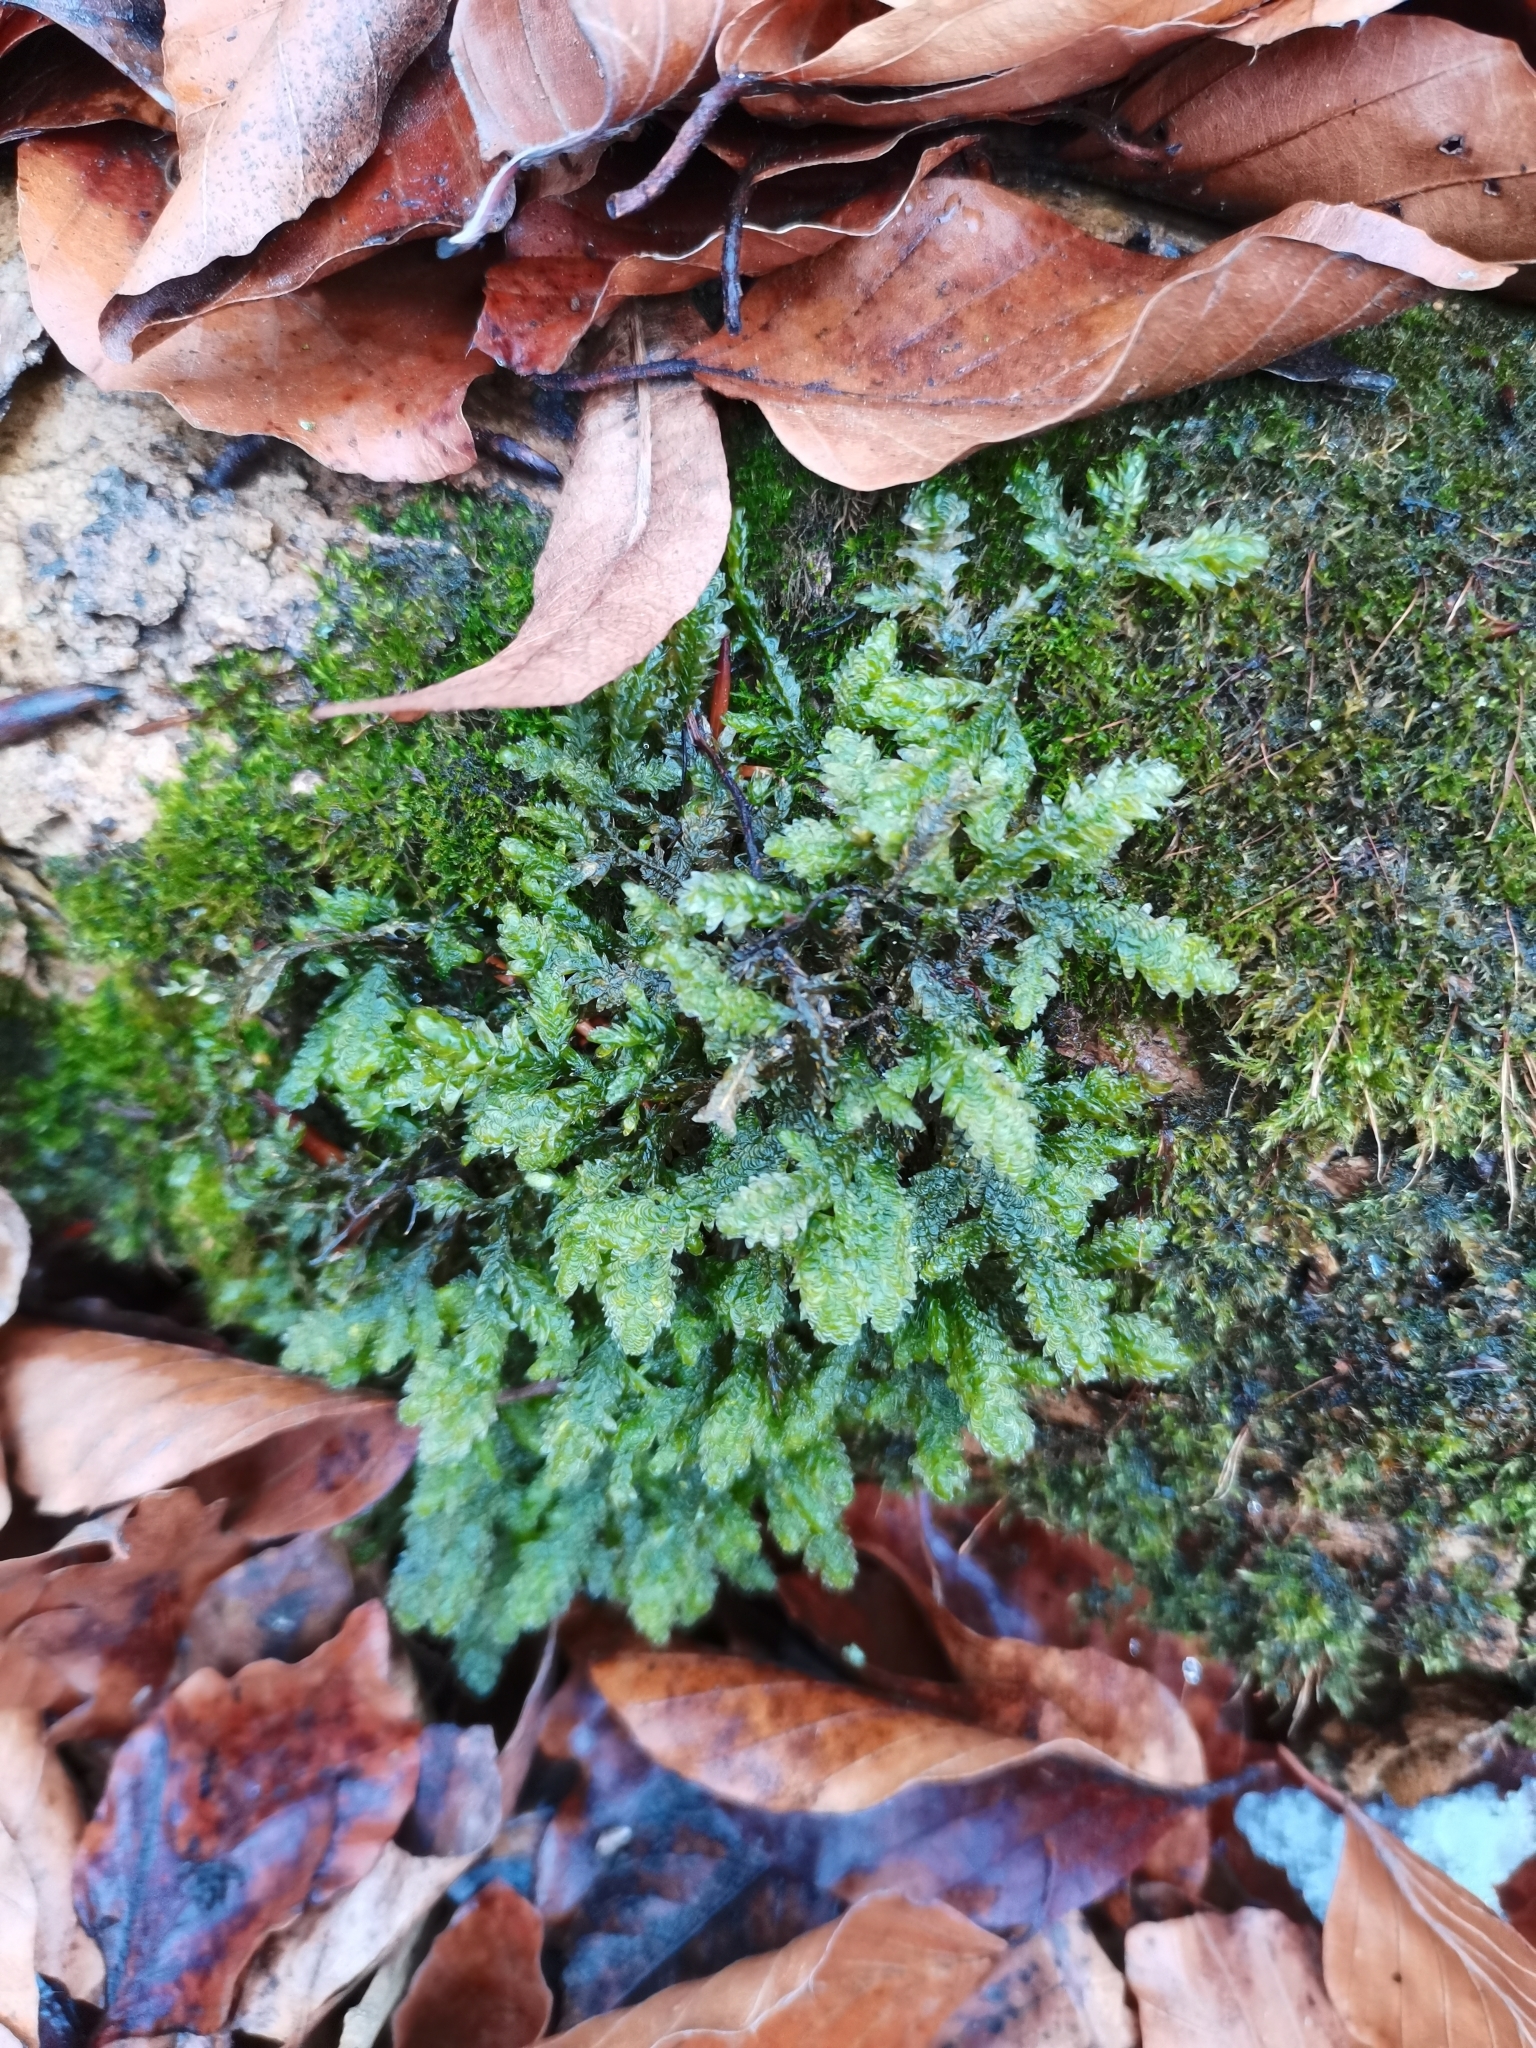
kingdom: Plantae
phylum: Bryophyta
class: Bryopsida
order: Hypnales
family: Neckeraceae
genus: Exsertotheca
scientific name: Exsertotheca crispa
